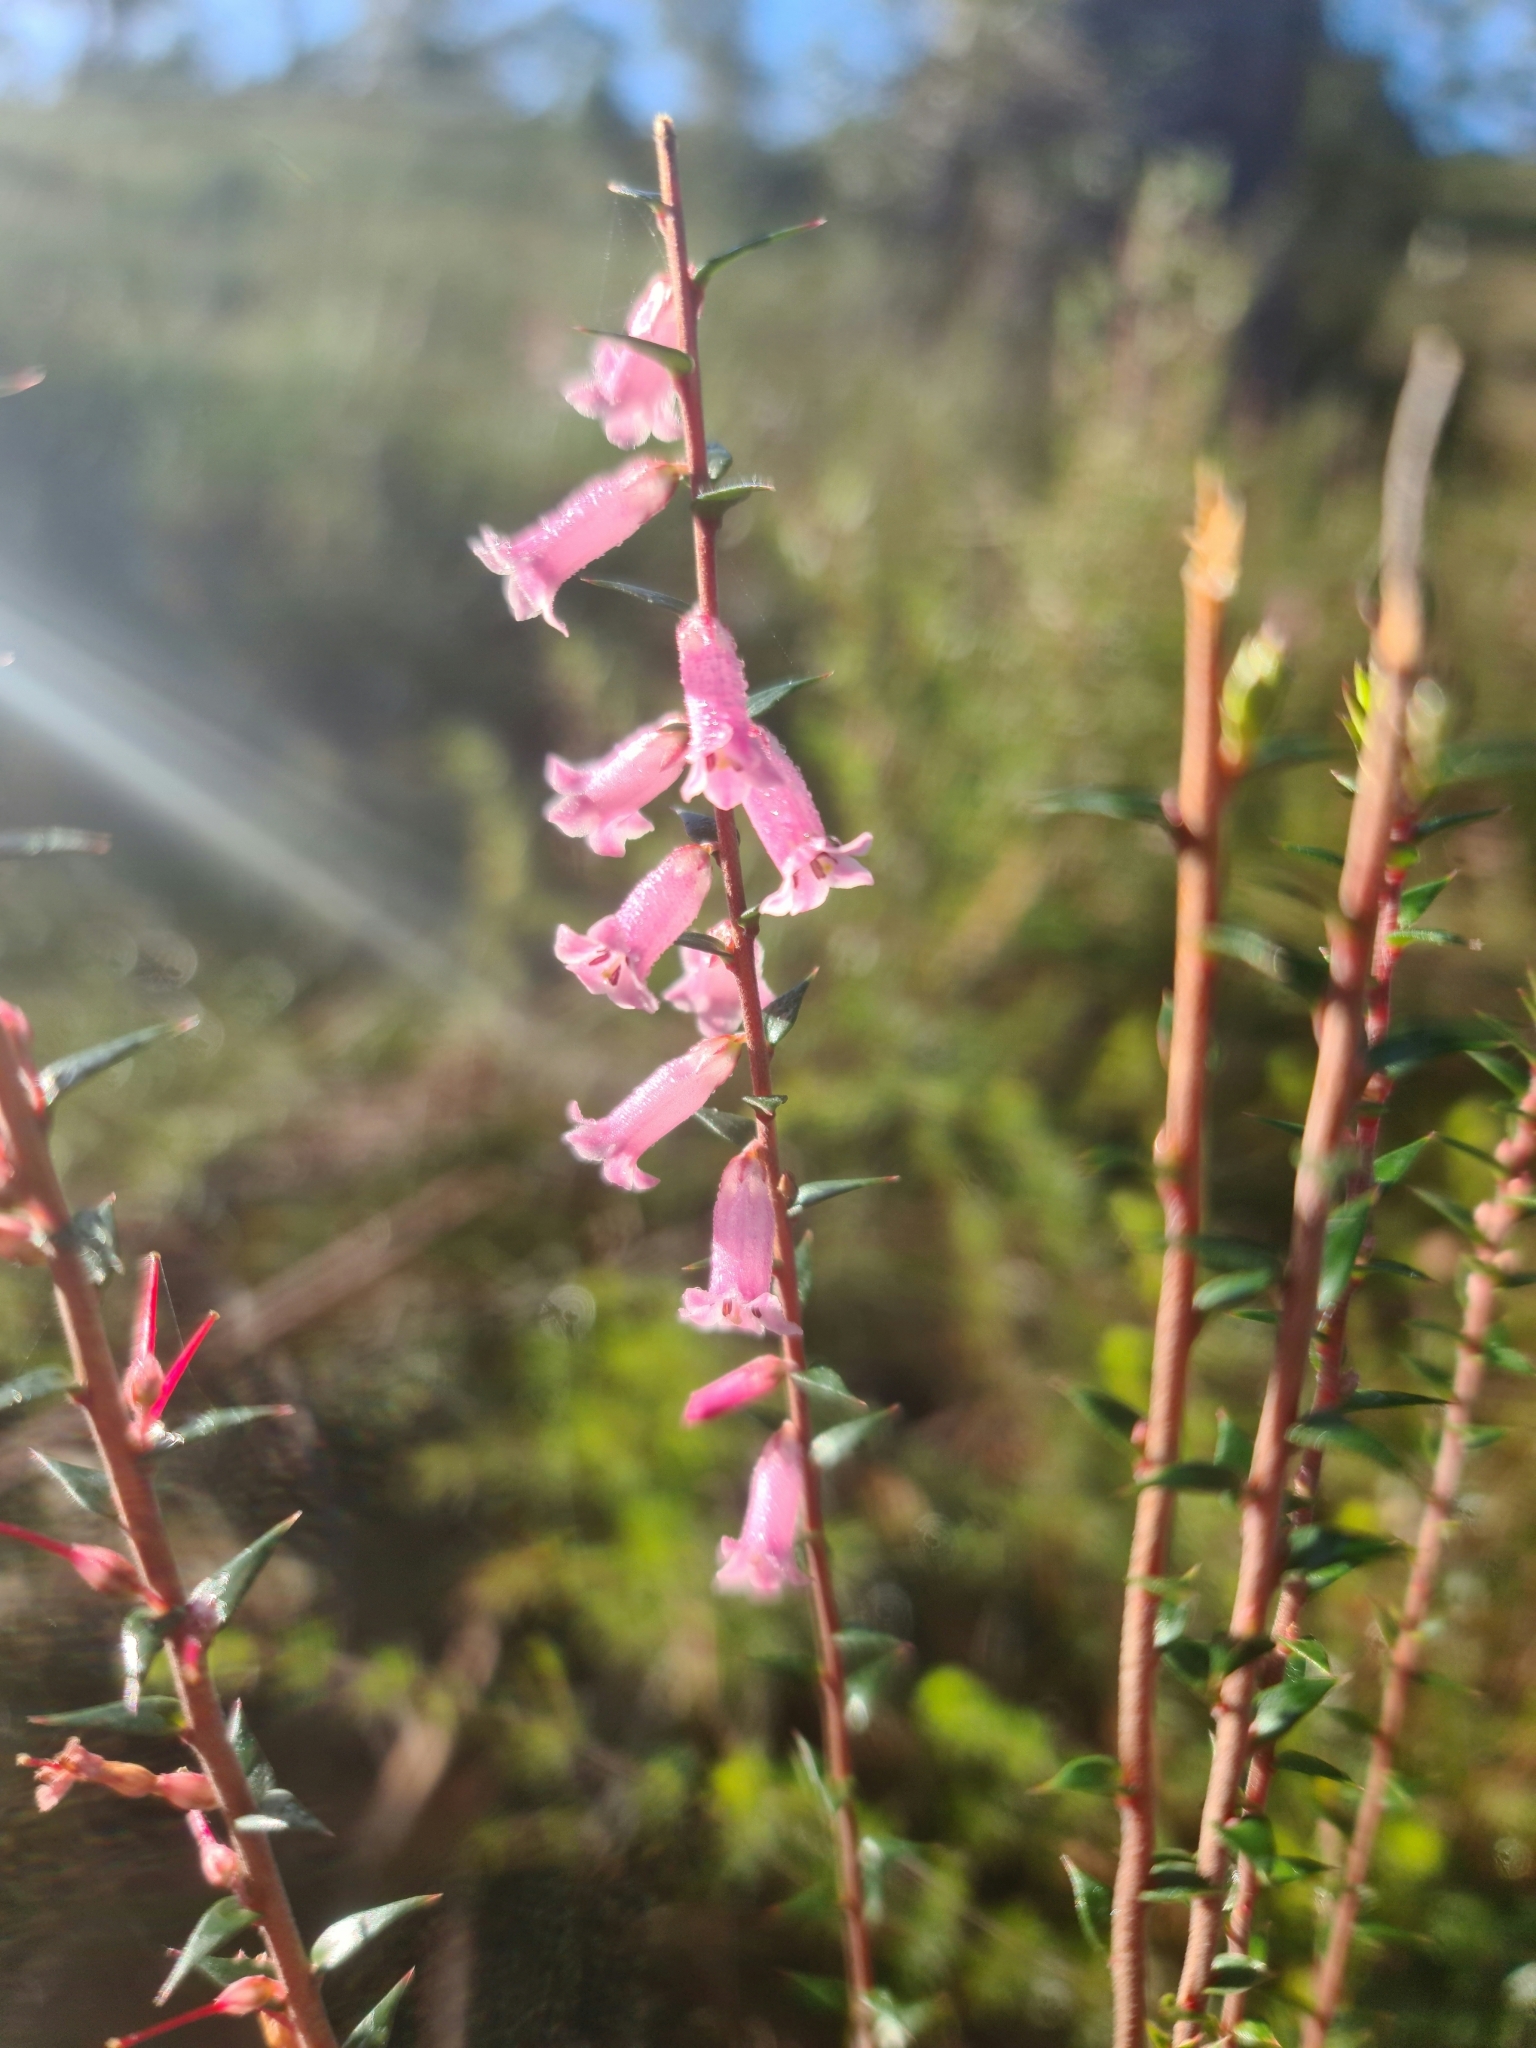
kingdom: Plantae
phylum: Tracheophyta
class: Magnoliopsida
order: Ericales
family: Ericaceae
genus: Epacris
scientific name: Epacris impressa
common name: Common-heath
